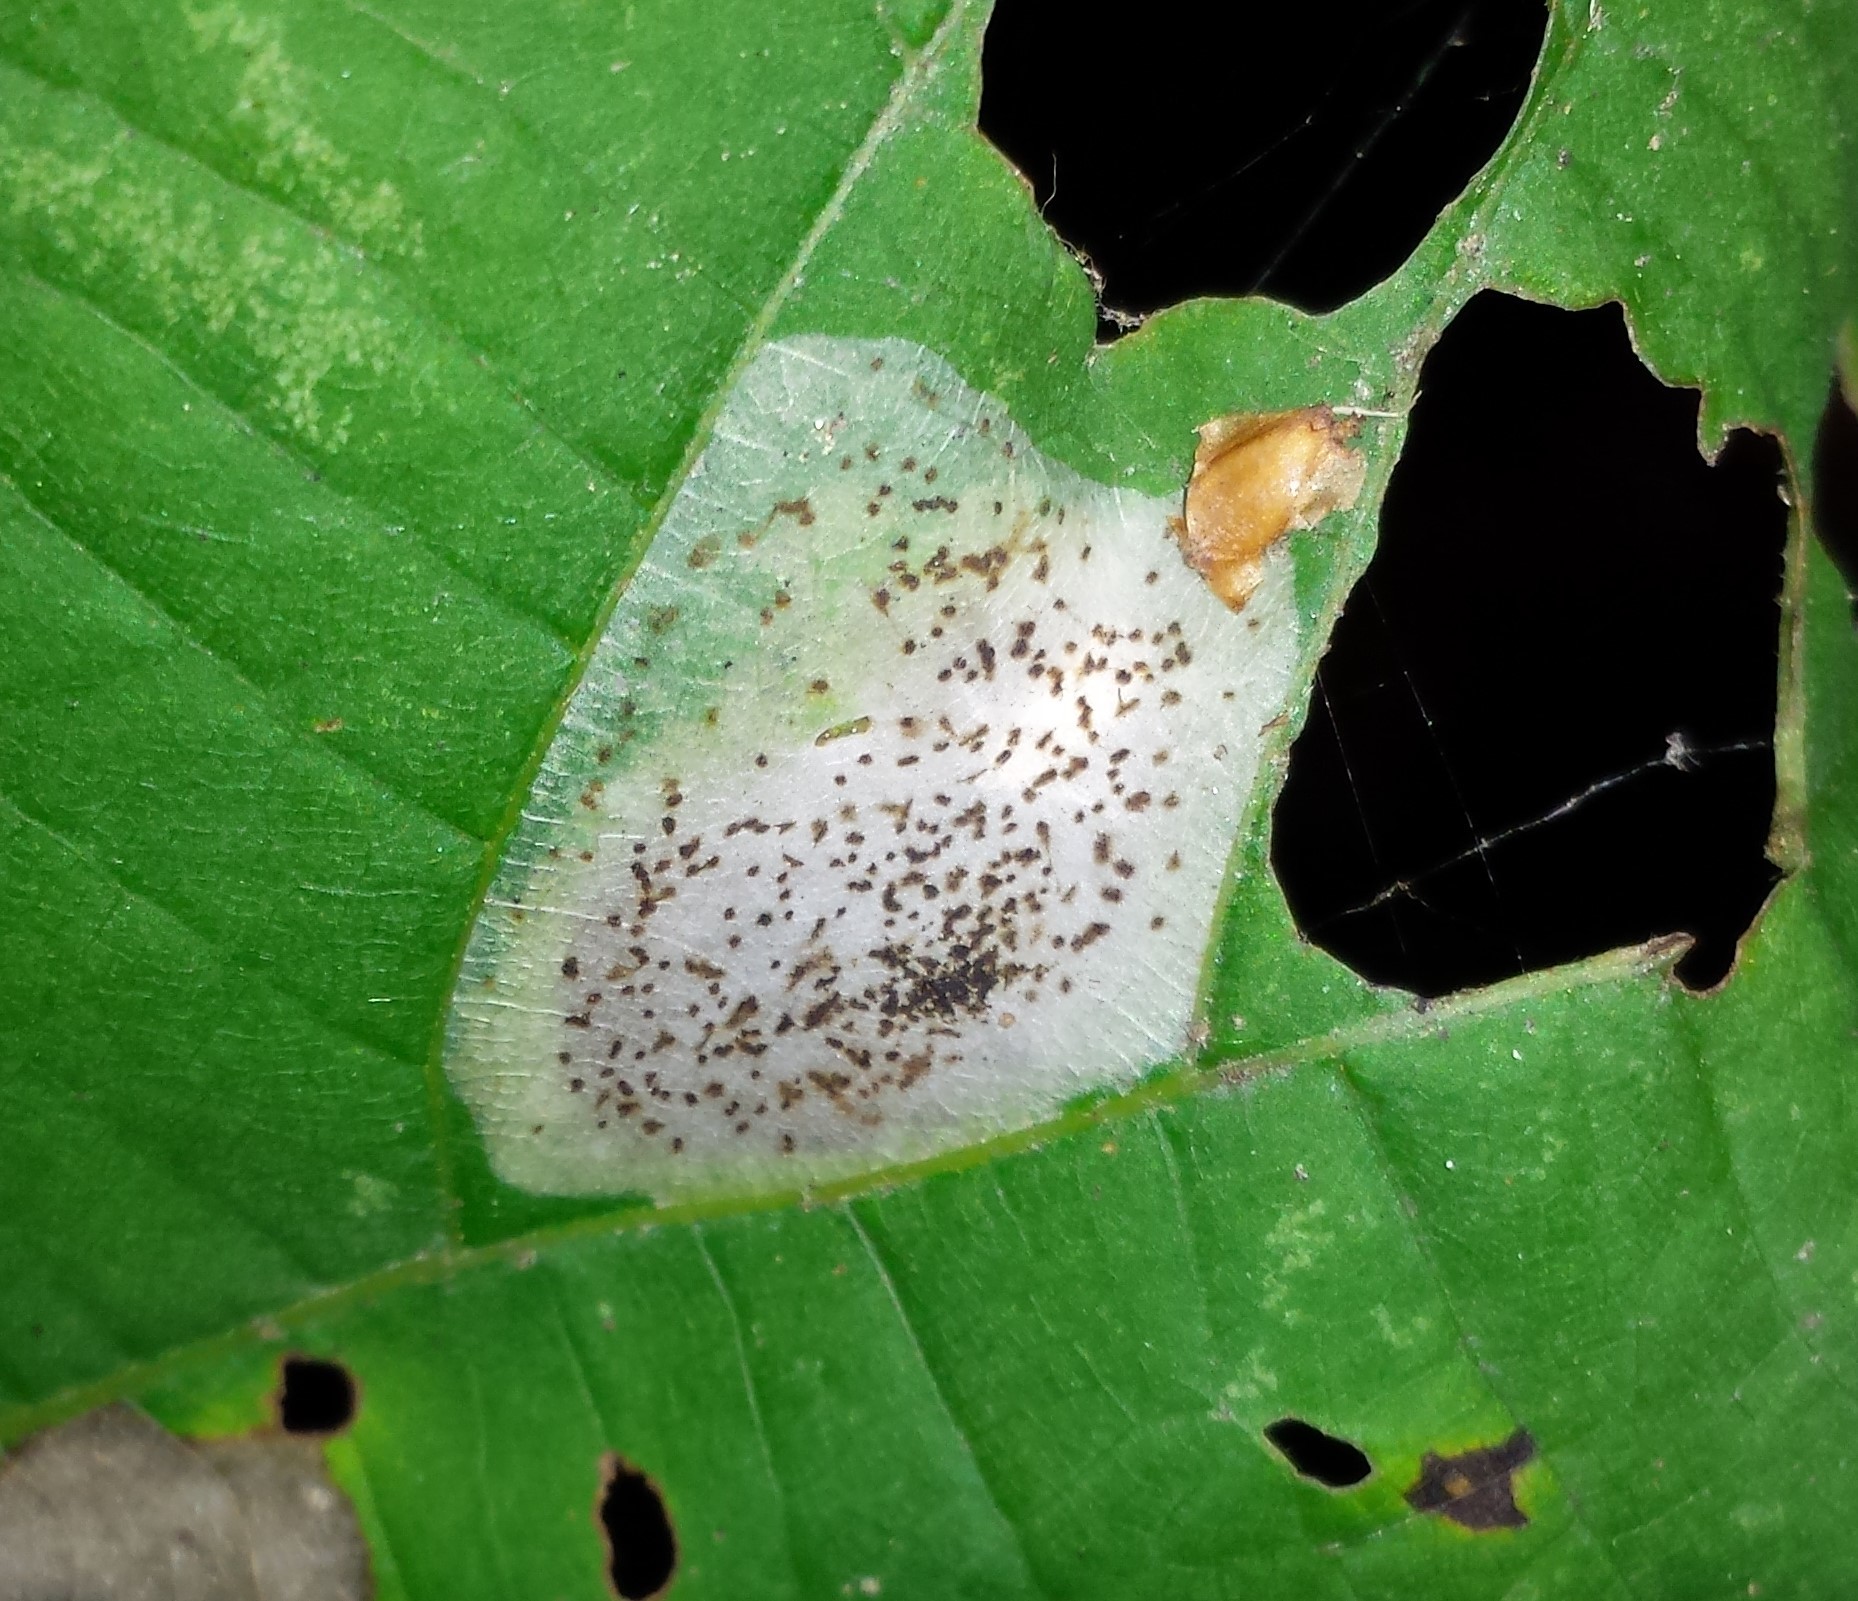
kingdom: Animalia
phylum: Arthropoda
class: Insecta
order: Lepidoptera
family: Gracillariidae
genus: Phyllonorycter
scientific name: Phyllonorycter tiliacella
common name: Basswood round-blotch miner moth
